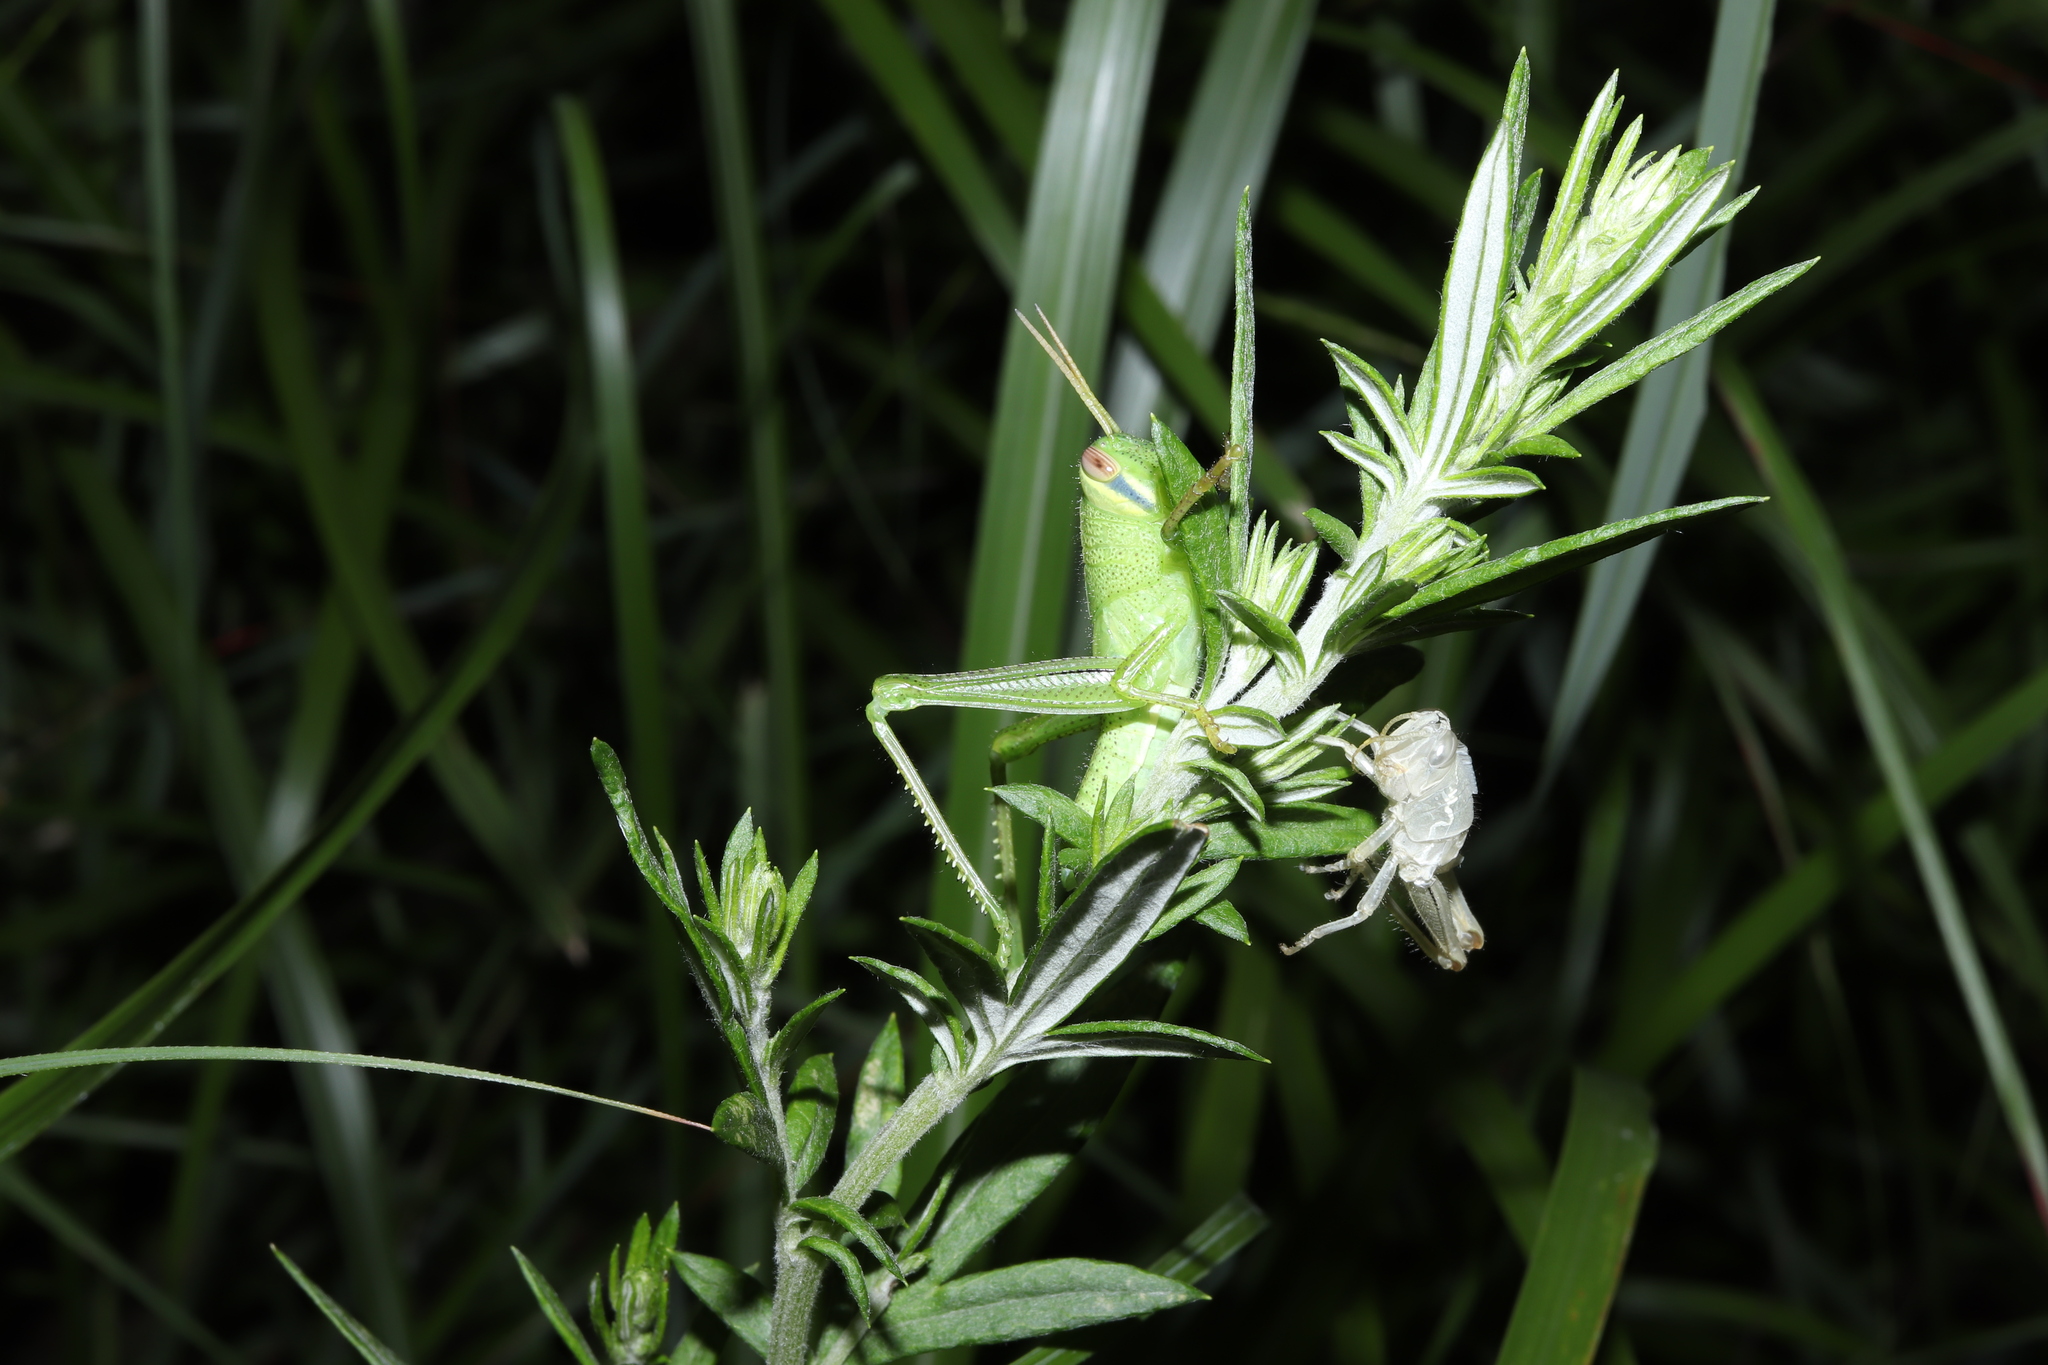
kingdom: Animalia
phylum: Arthropoda
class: Insecta
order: Orthoptera
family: Acrididae
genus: Patanga
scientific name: Patanga japonica
